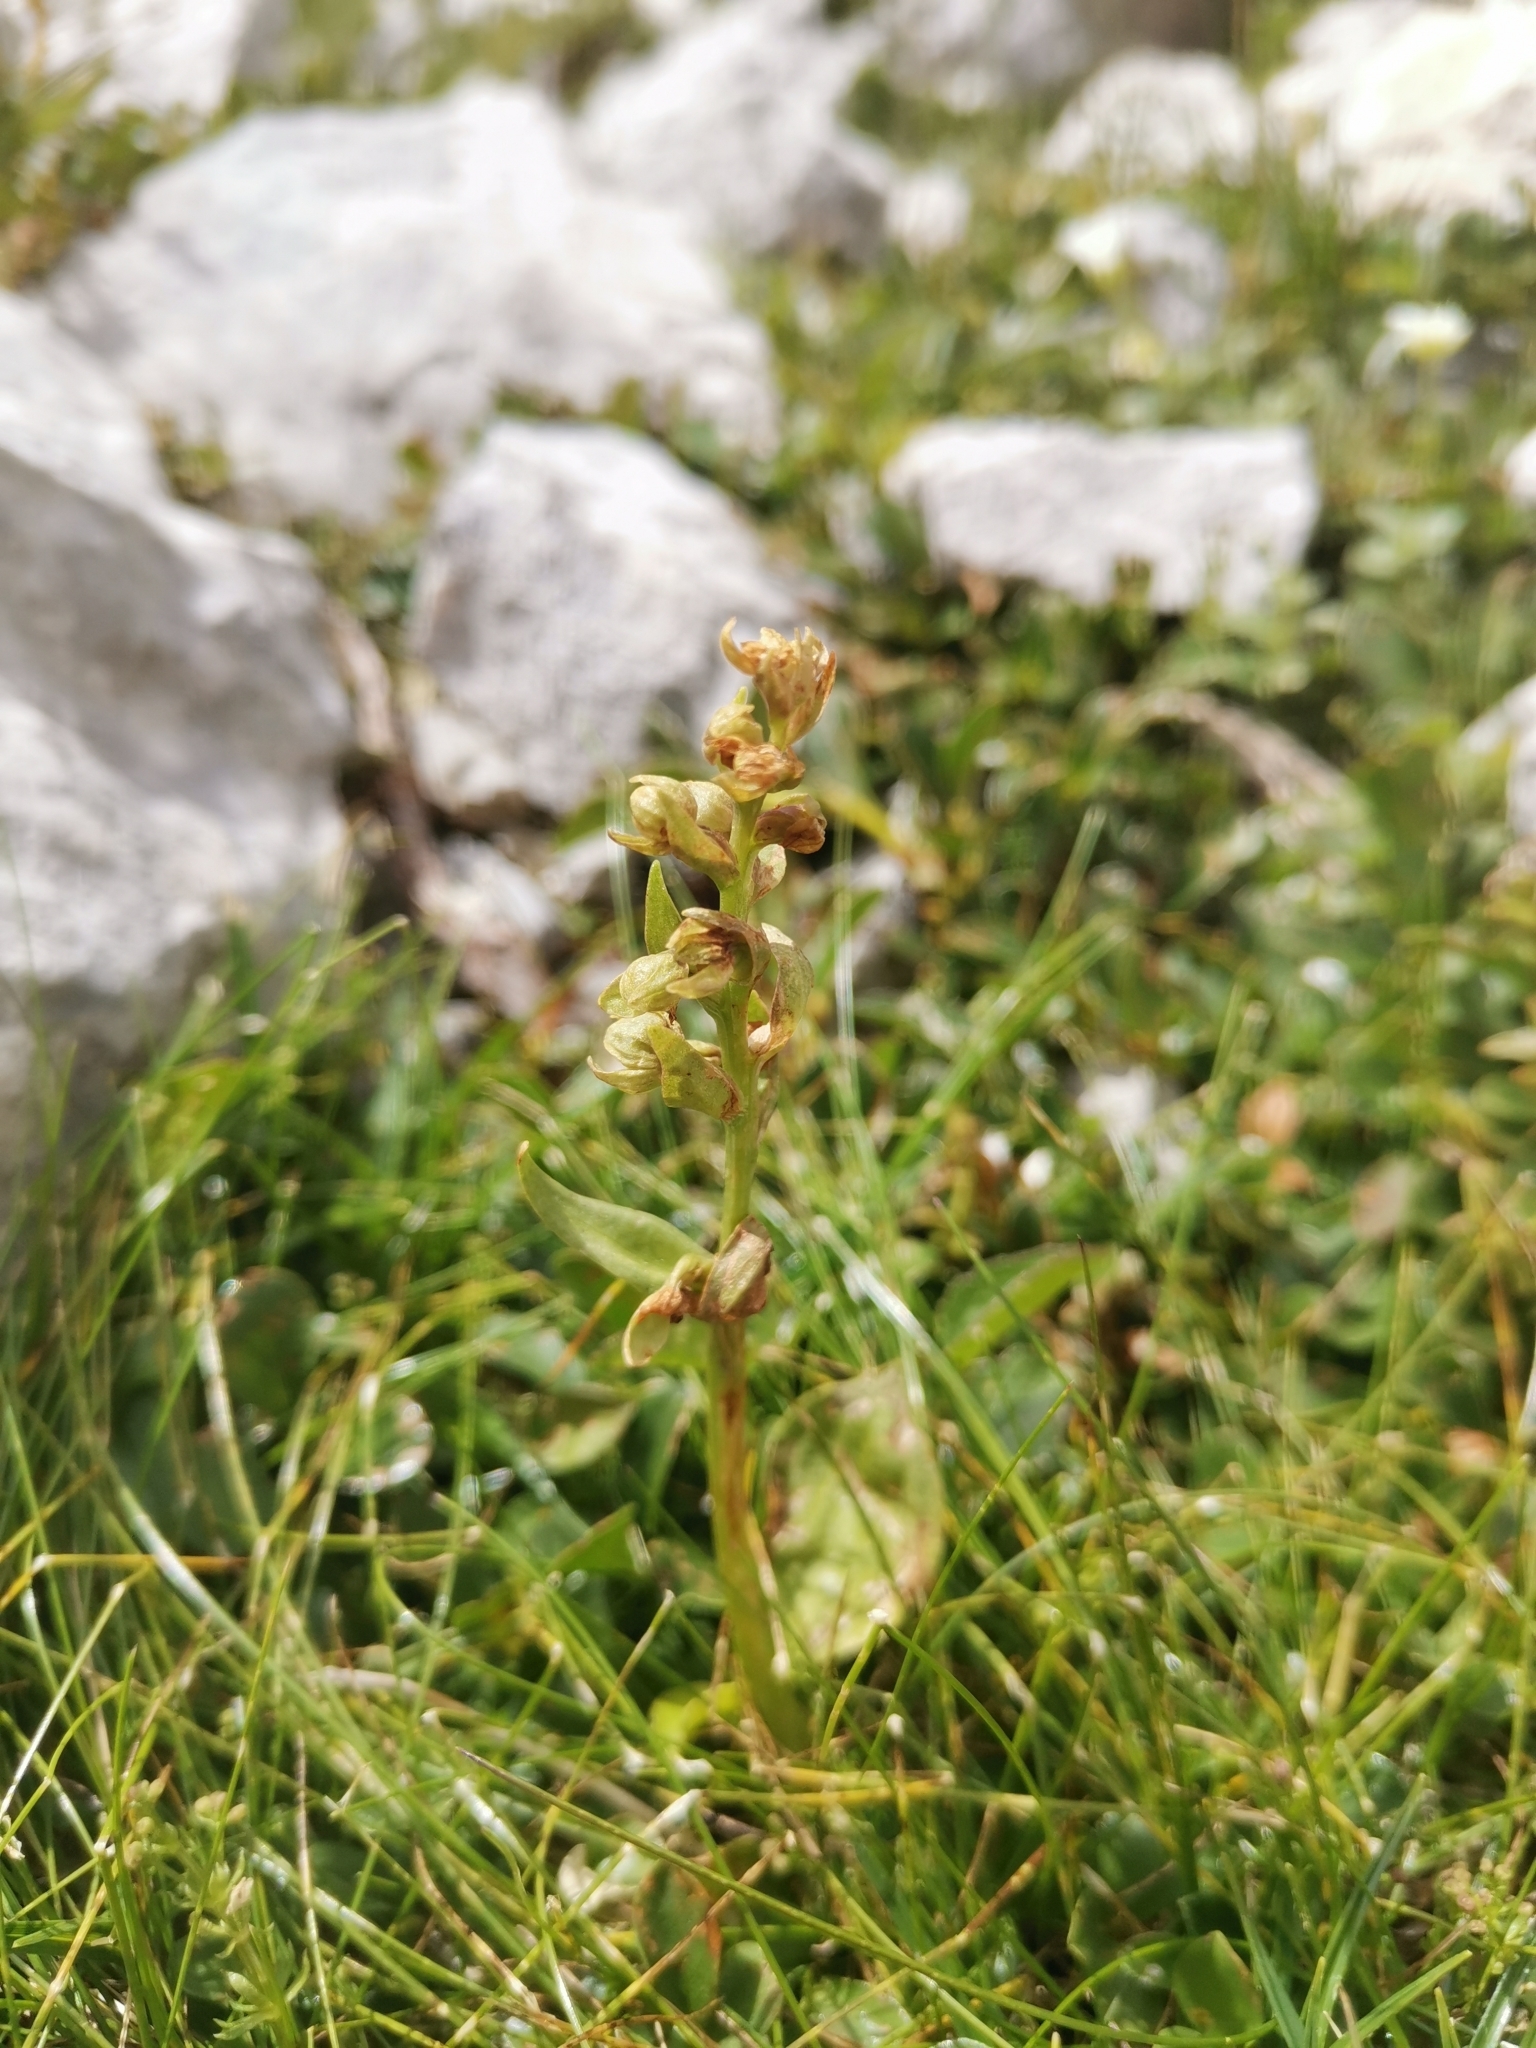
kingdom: Plantae
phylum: Tracheophyta
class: Liliopsida
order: Asparagales
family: Orchidaceae
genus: Dactylorhiza
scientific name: Dactylorhiza viridis
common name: Longbract frog orchid
